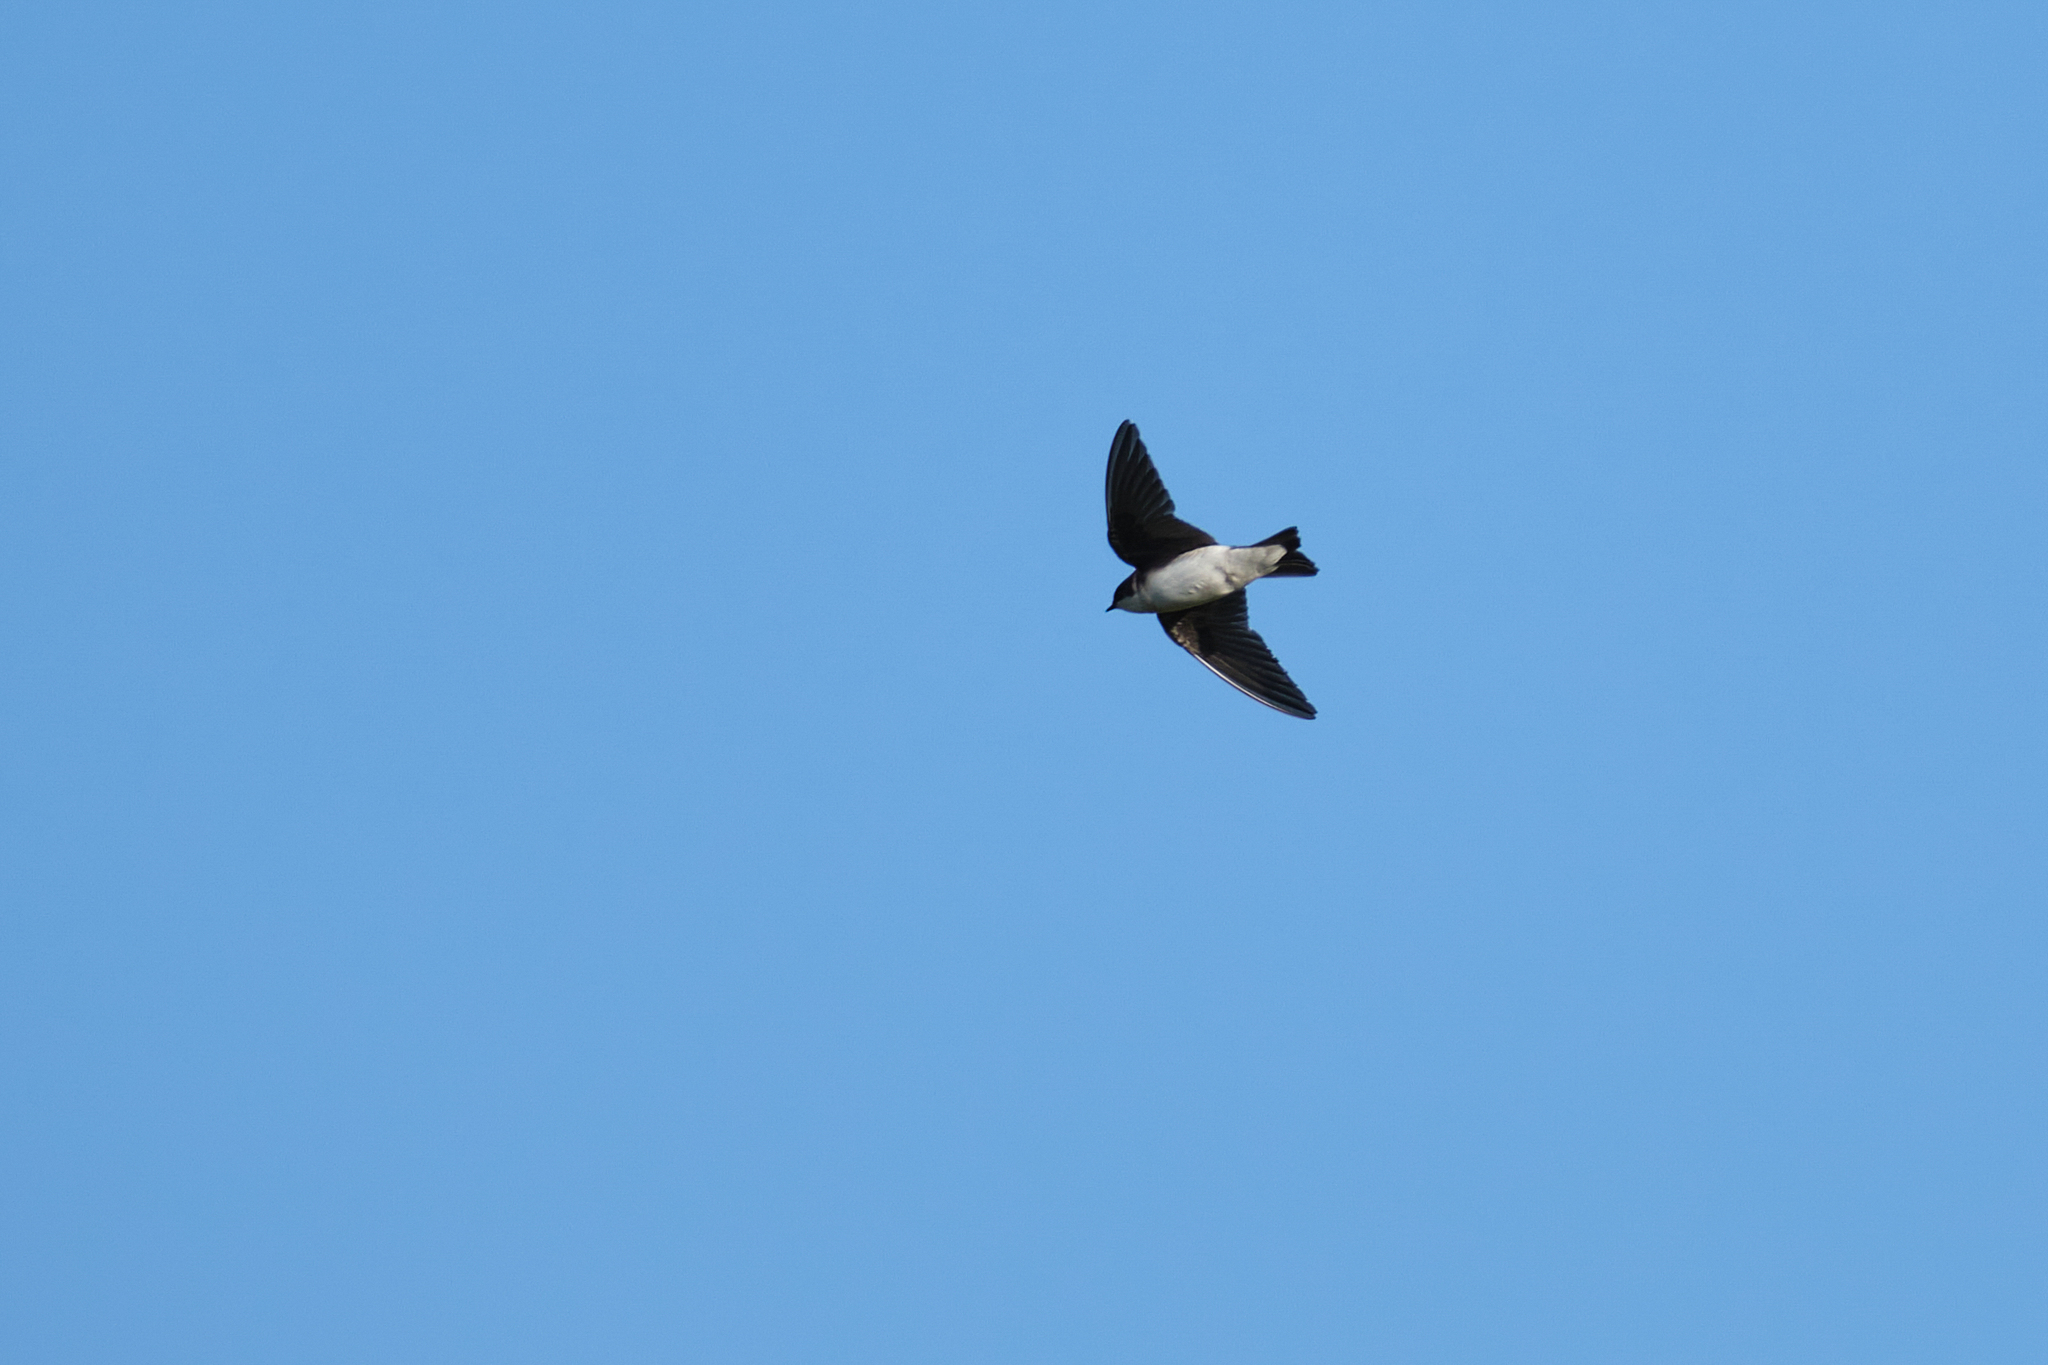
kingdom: Animalia
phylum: Chordata
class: Aves
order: Passeriformes
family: Hirundinidae
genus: Tachycineta
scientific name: Tachycineta bicolor
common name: Tree swallow
